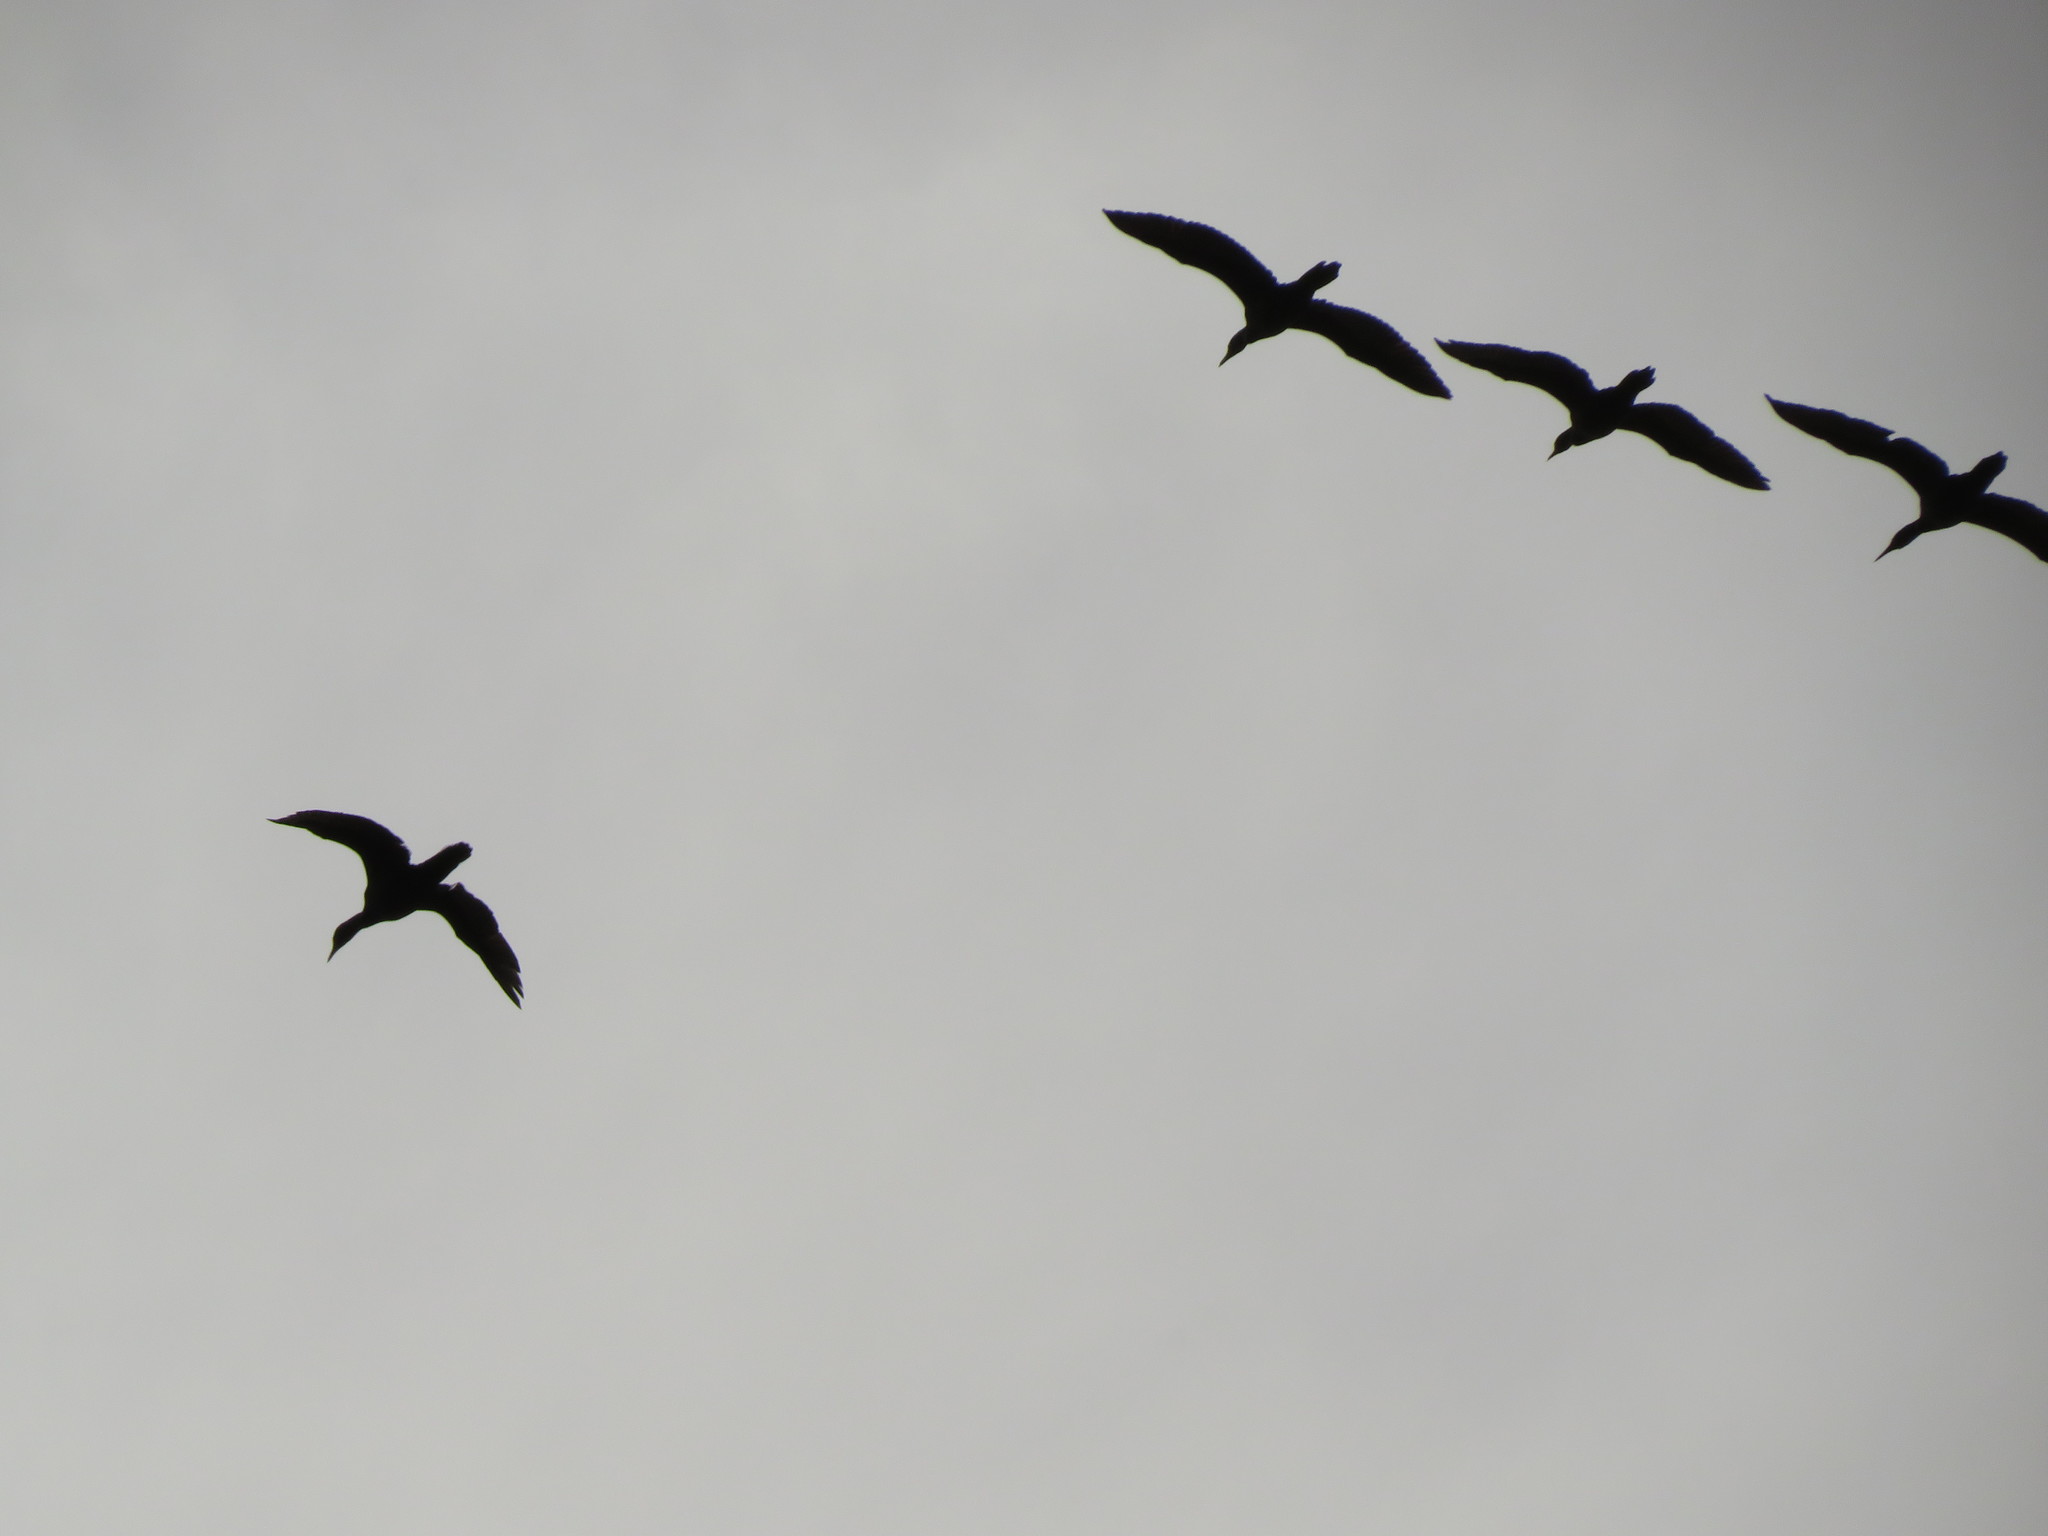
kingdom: Animalia
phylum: Chordata
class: Aves
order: Suliformes
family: Phalacrocoracidae
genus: Phalacrocorax
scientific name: Phalacrocorax brasilianus
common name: Neotropic cormorant
